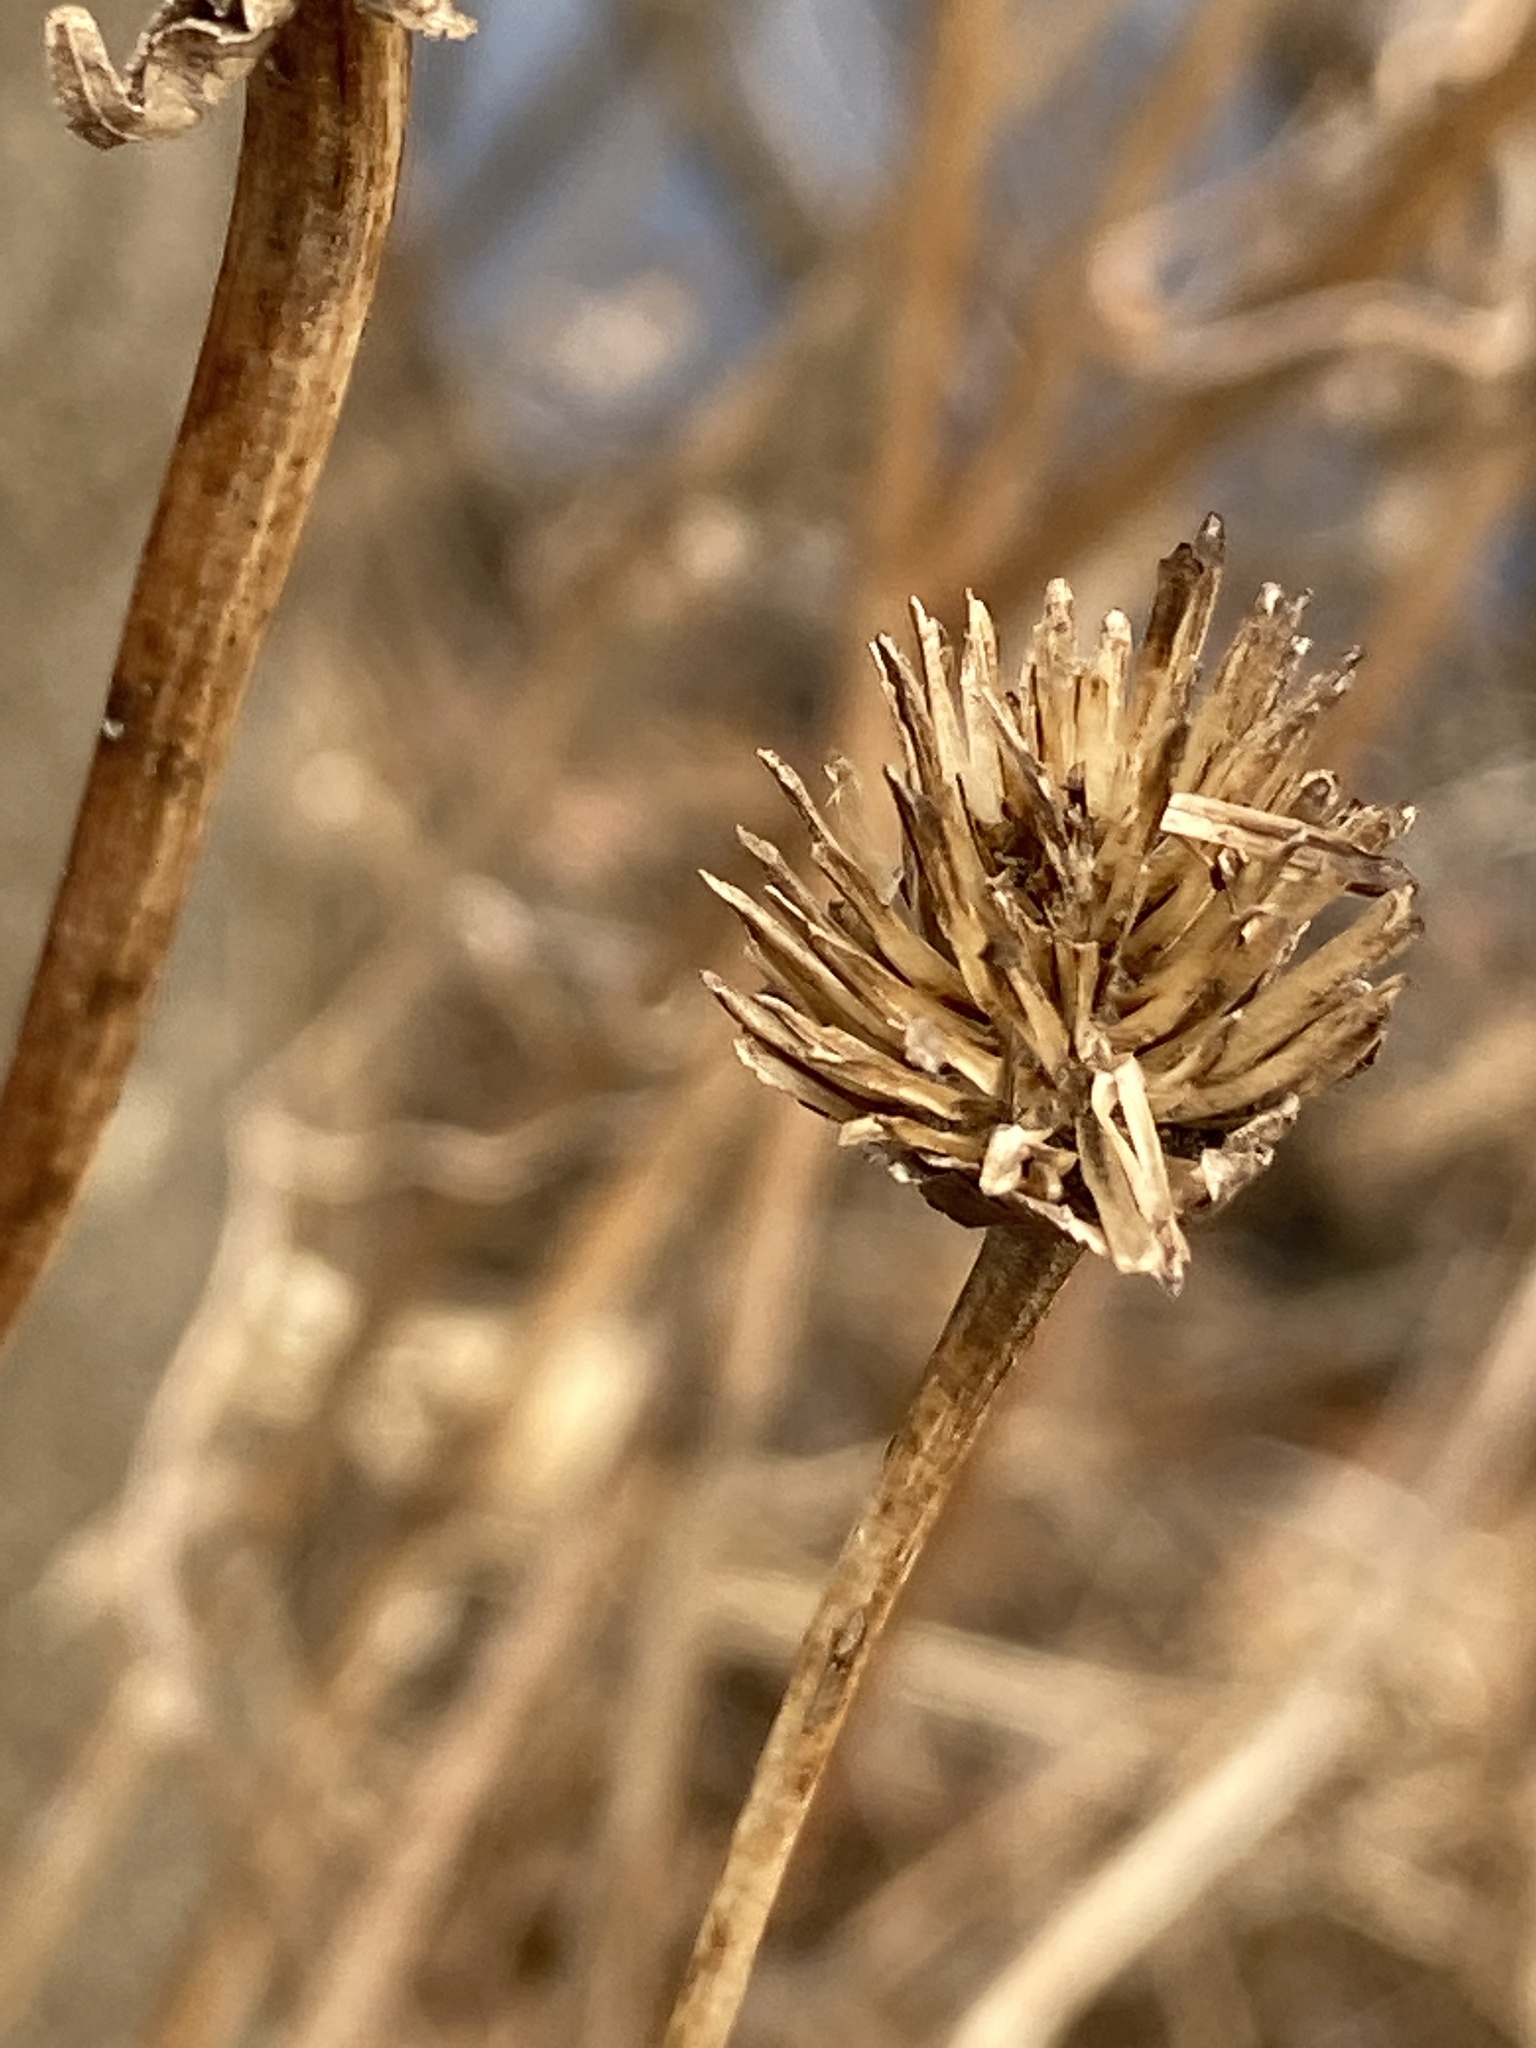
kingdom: Plantae
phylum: Tracheophyta
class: Magnoliopsida
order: Asterales
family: Asteraceae
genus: Heliopsis
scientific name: Heliopsis helianthoides
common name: False sunflower
